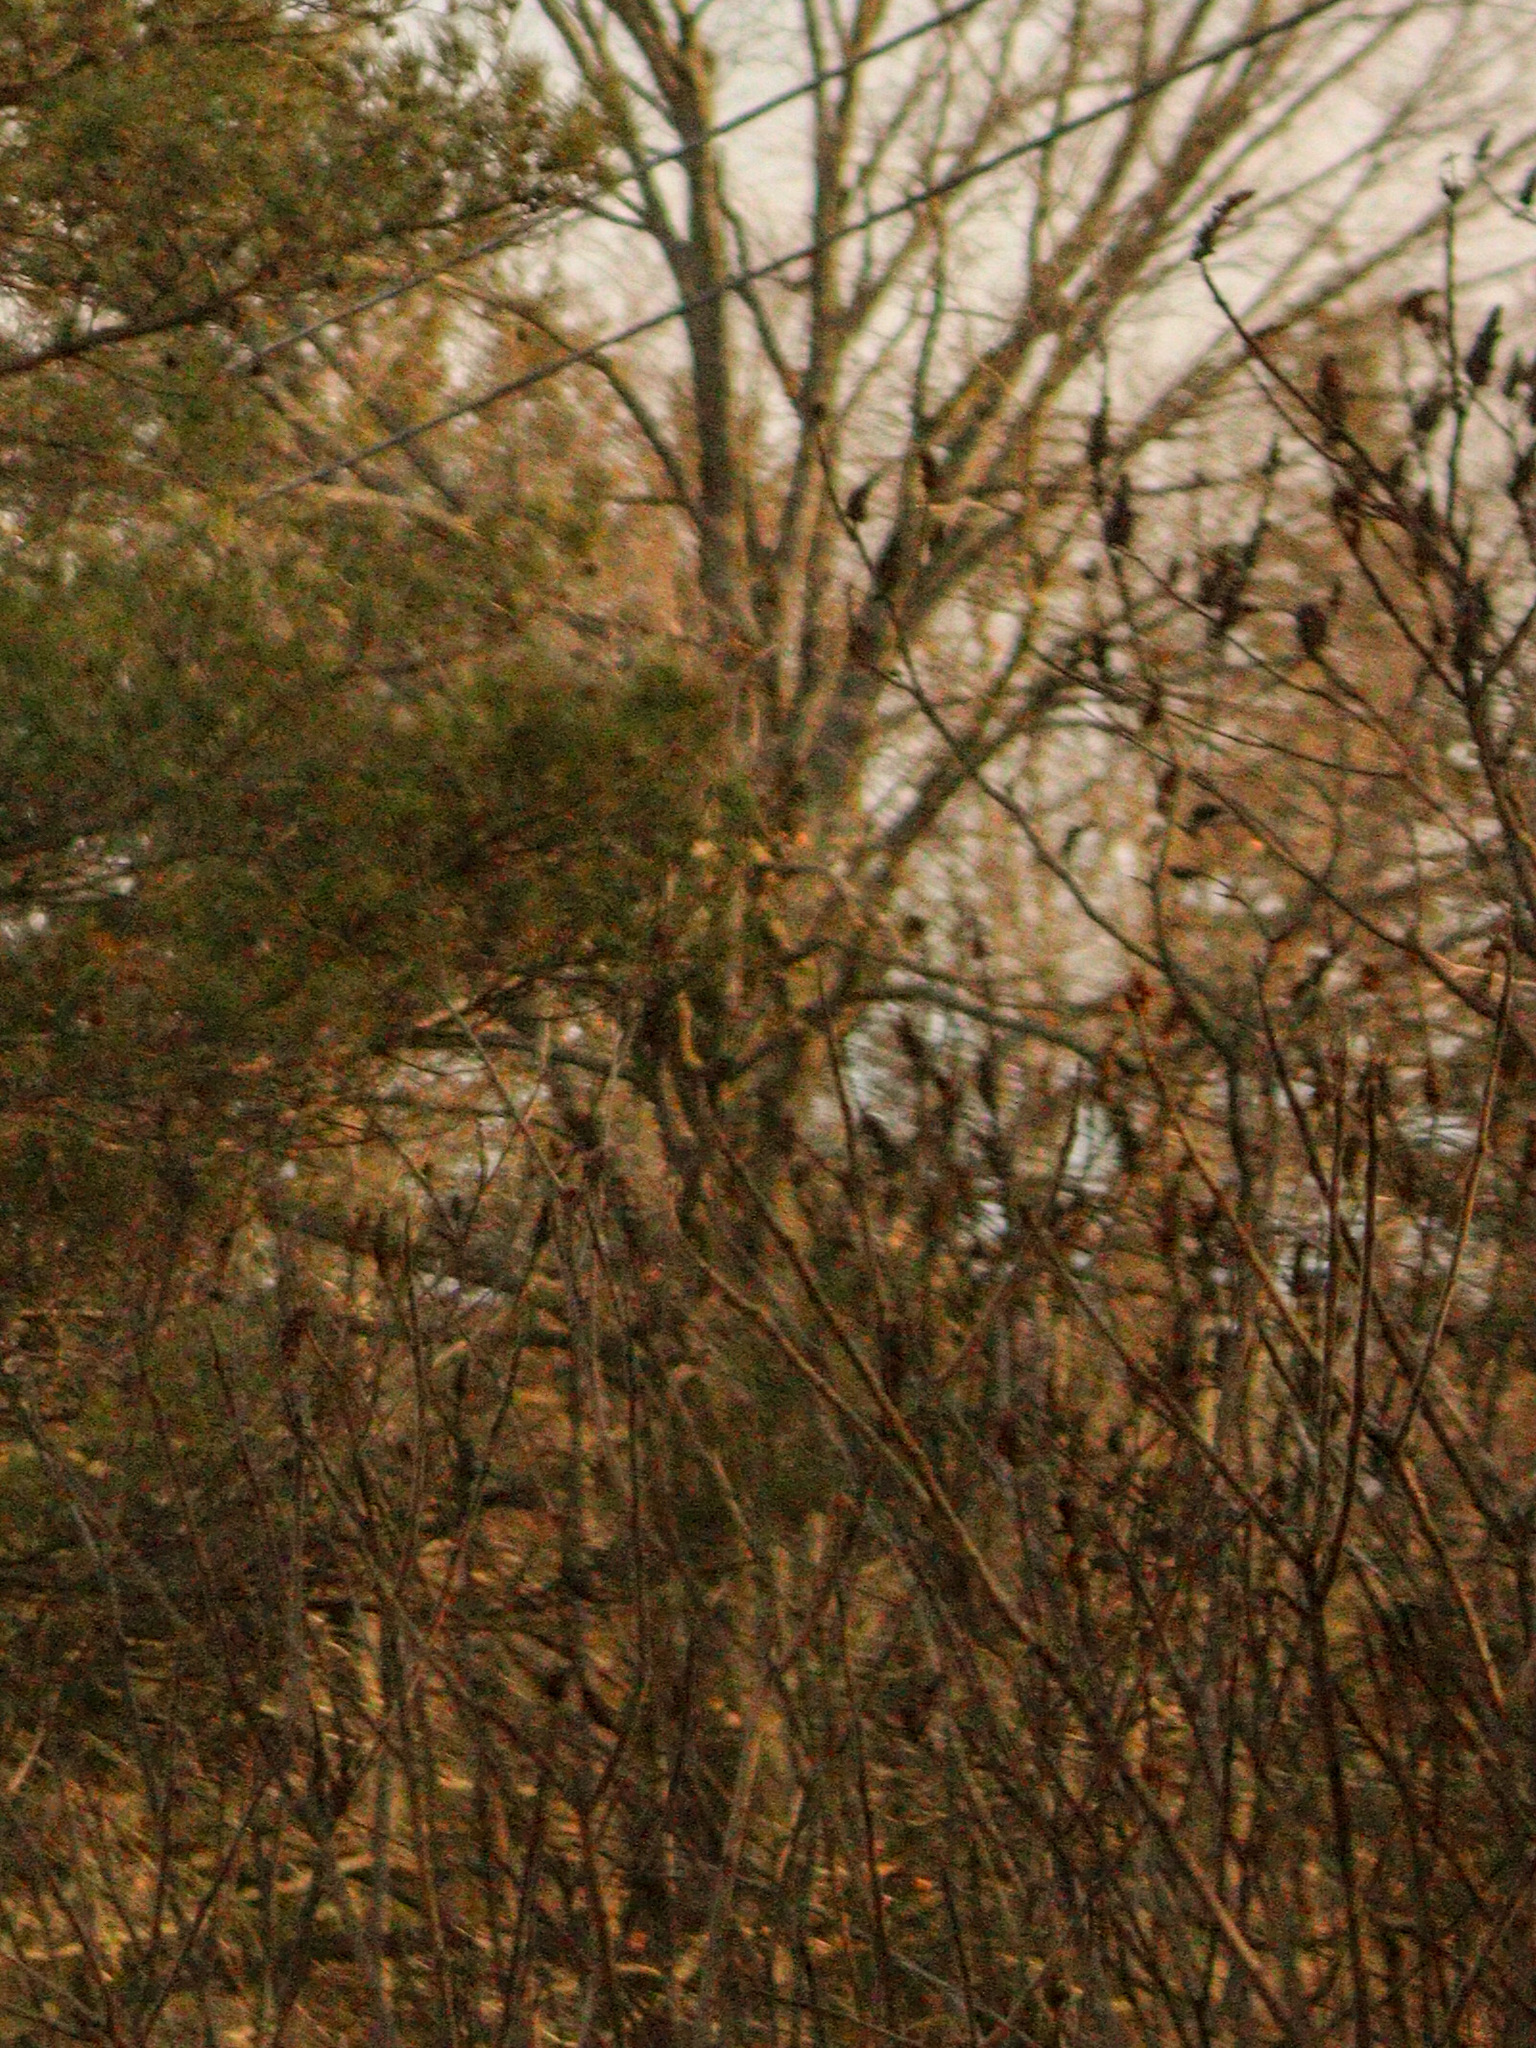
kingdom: Plantae
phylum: Tracheophyta
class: Magnoliopsida
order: Sapindales
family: Anacardiaceae
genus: Rhus
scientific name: Rhus typhina
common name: Staghorn sumac
